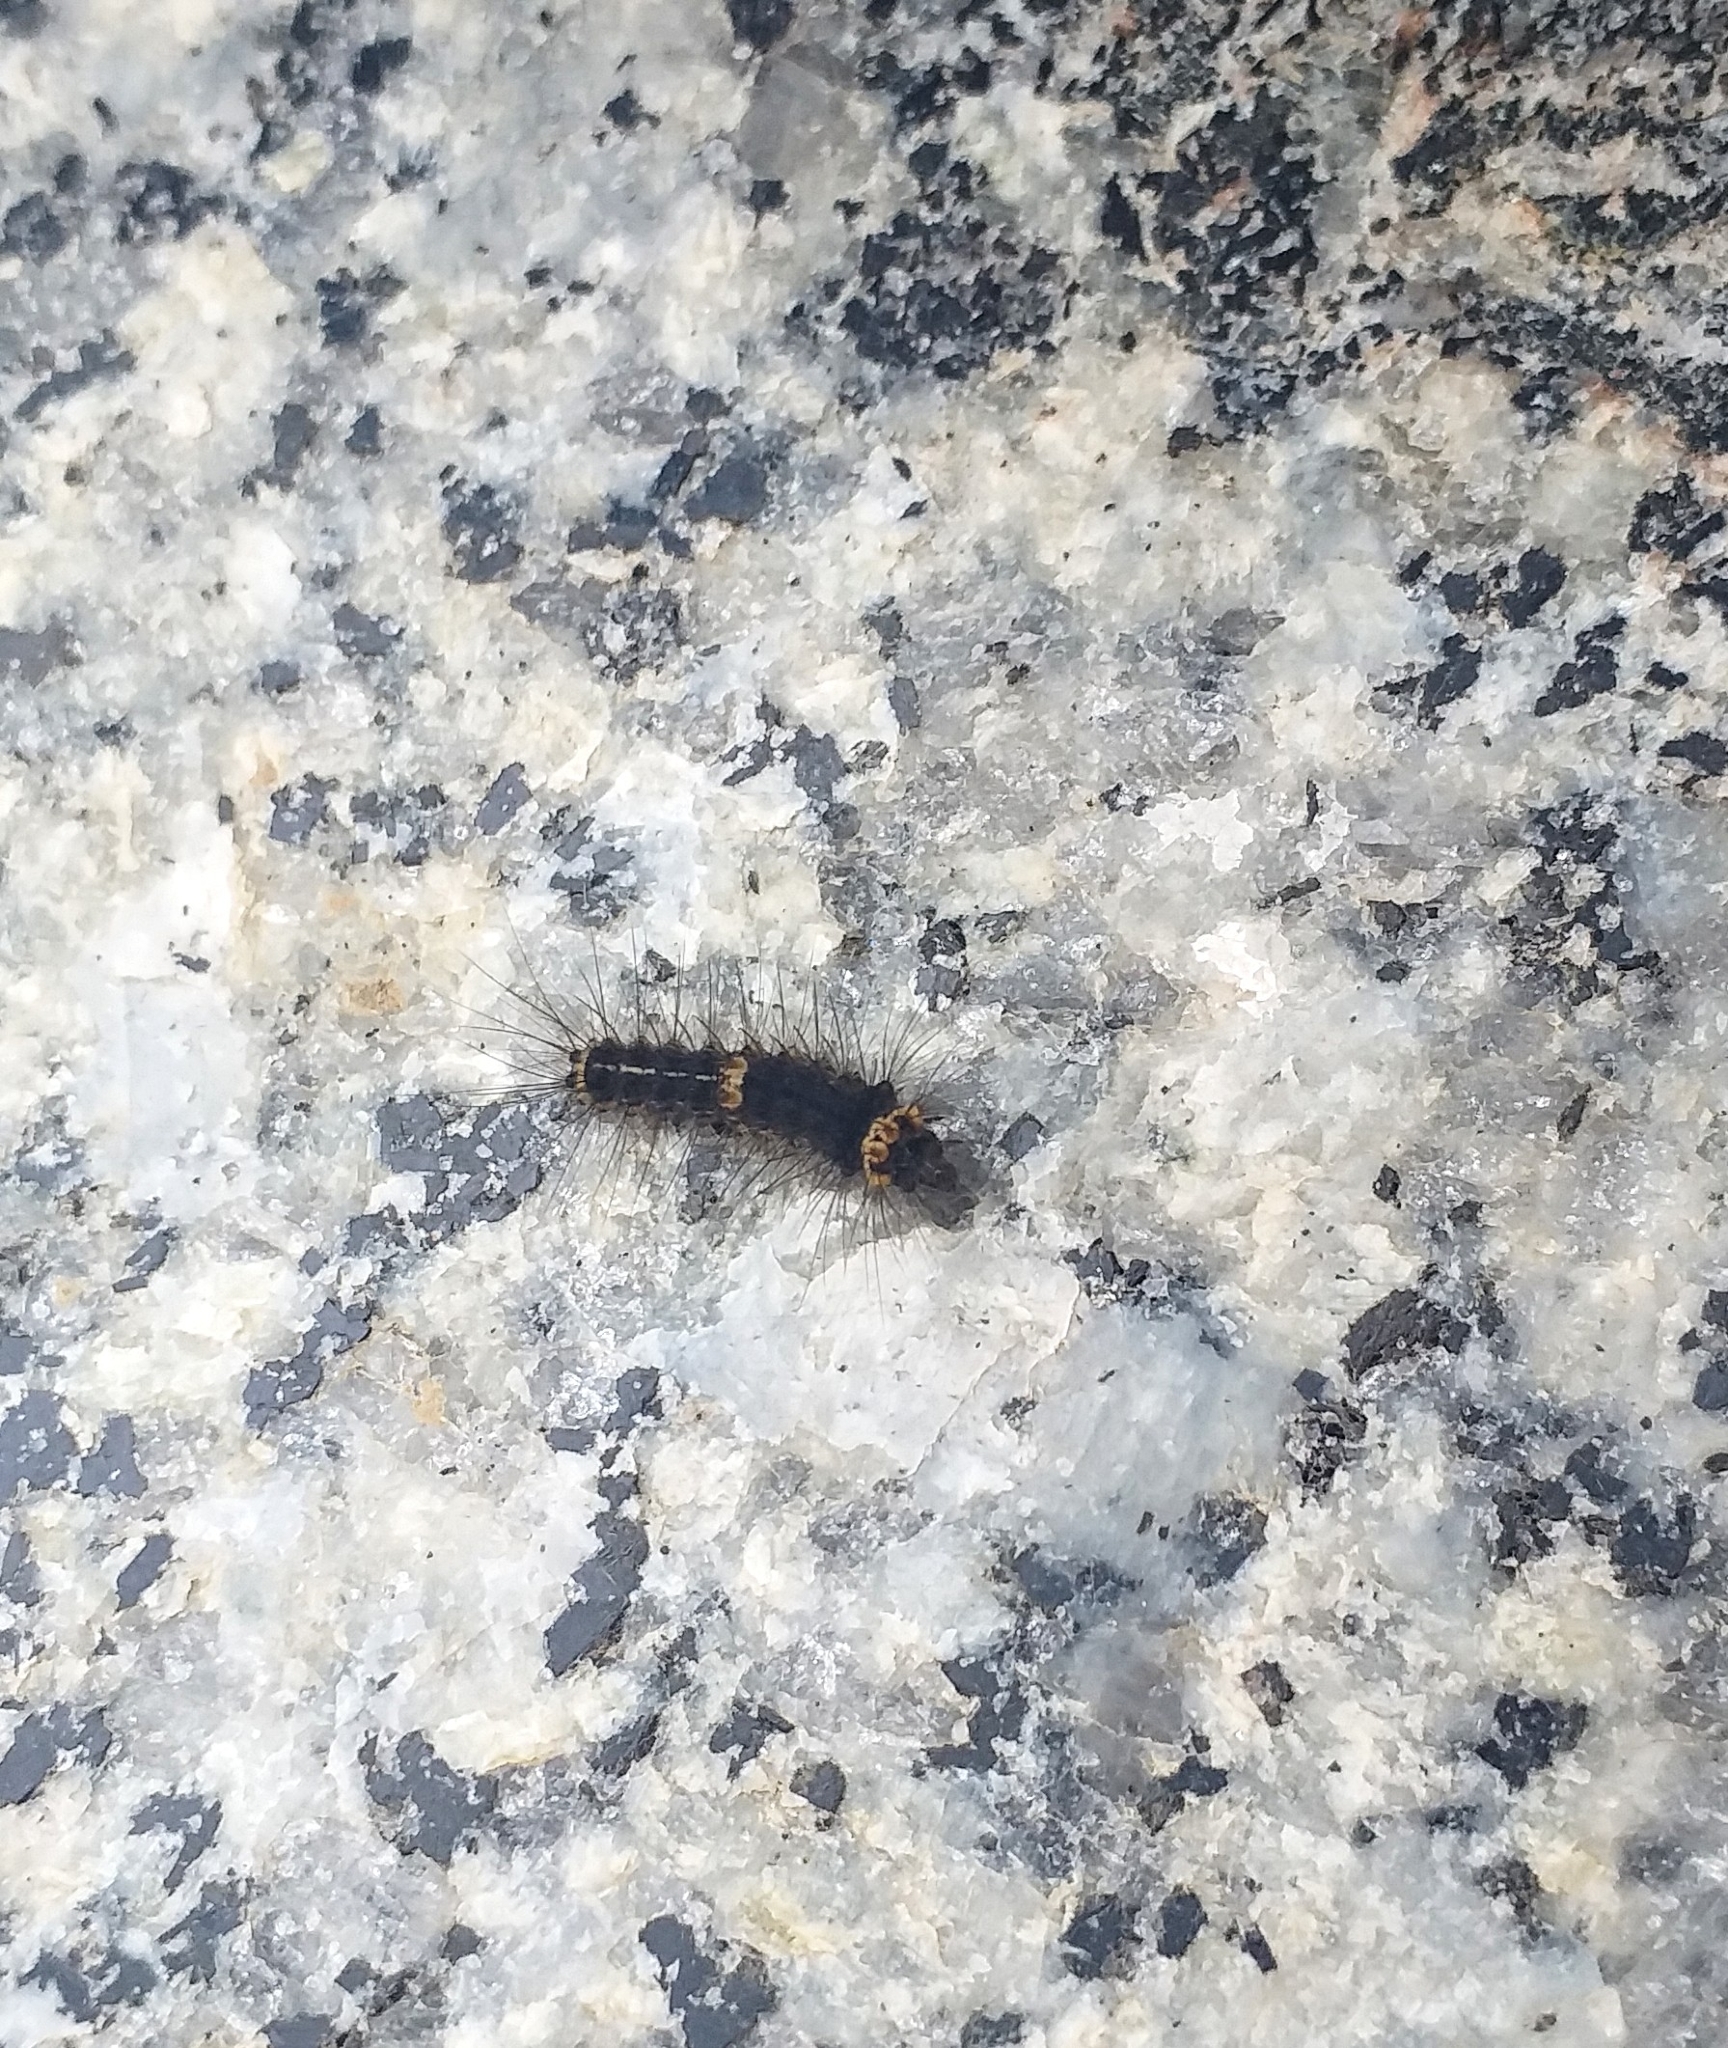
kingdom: Animalia
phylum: Arthropoda
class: Insecta
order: Lepidoptera
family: Erebidae
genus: Nepita
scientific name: Nepita conferta
